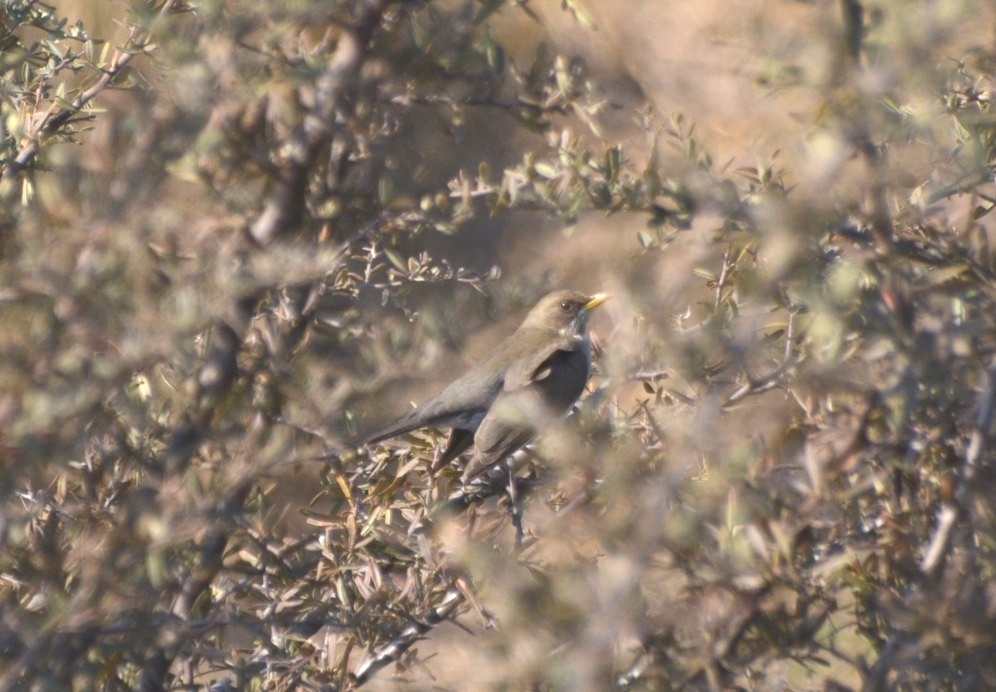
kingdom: Animalia
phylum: Chordata
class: Aves
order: Passeriformes
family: Turdidae
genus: Turdus
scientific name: Turdus amaurochalinus
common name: Creamy-bellied thrush
